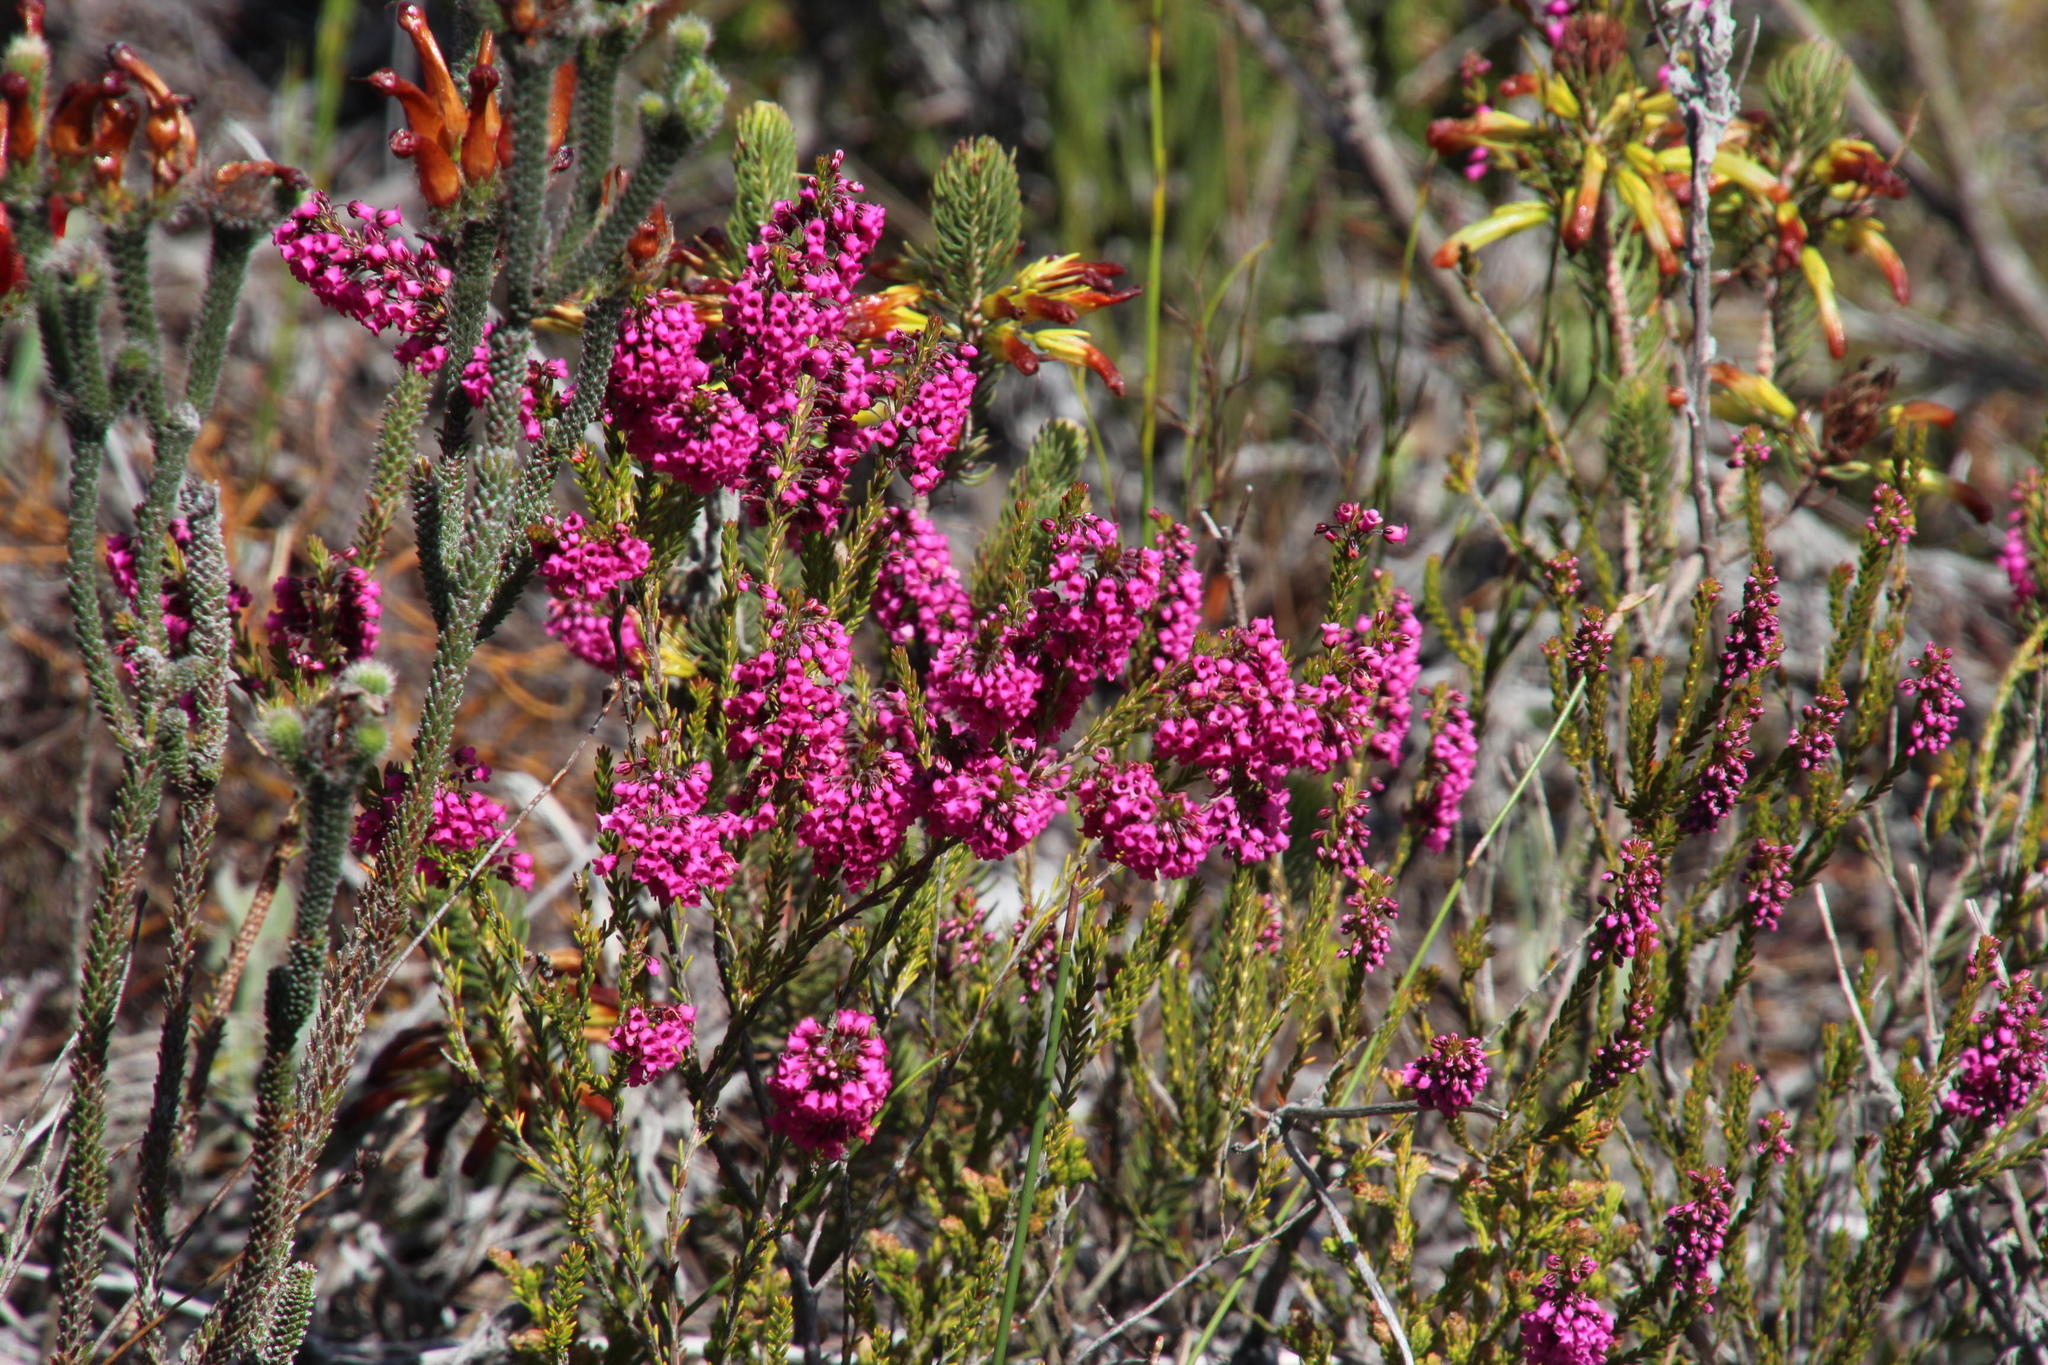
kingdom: Plantae
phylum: Tracheophyta
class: Magnoliopsida
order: Ericales
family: Ericaceae
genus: Erica
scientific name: Erica pulchella
